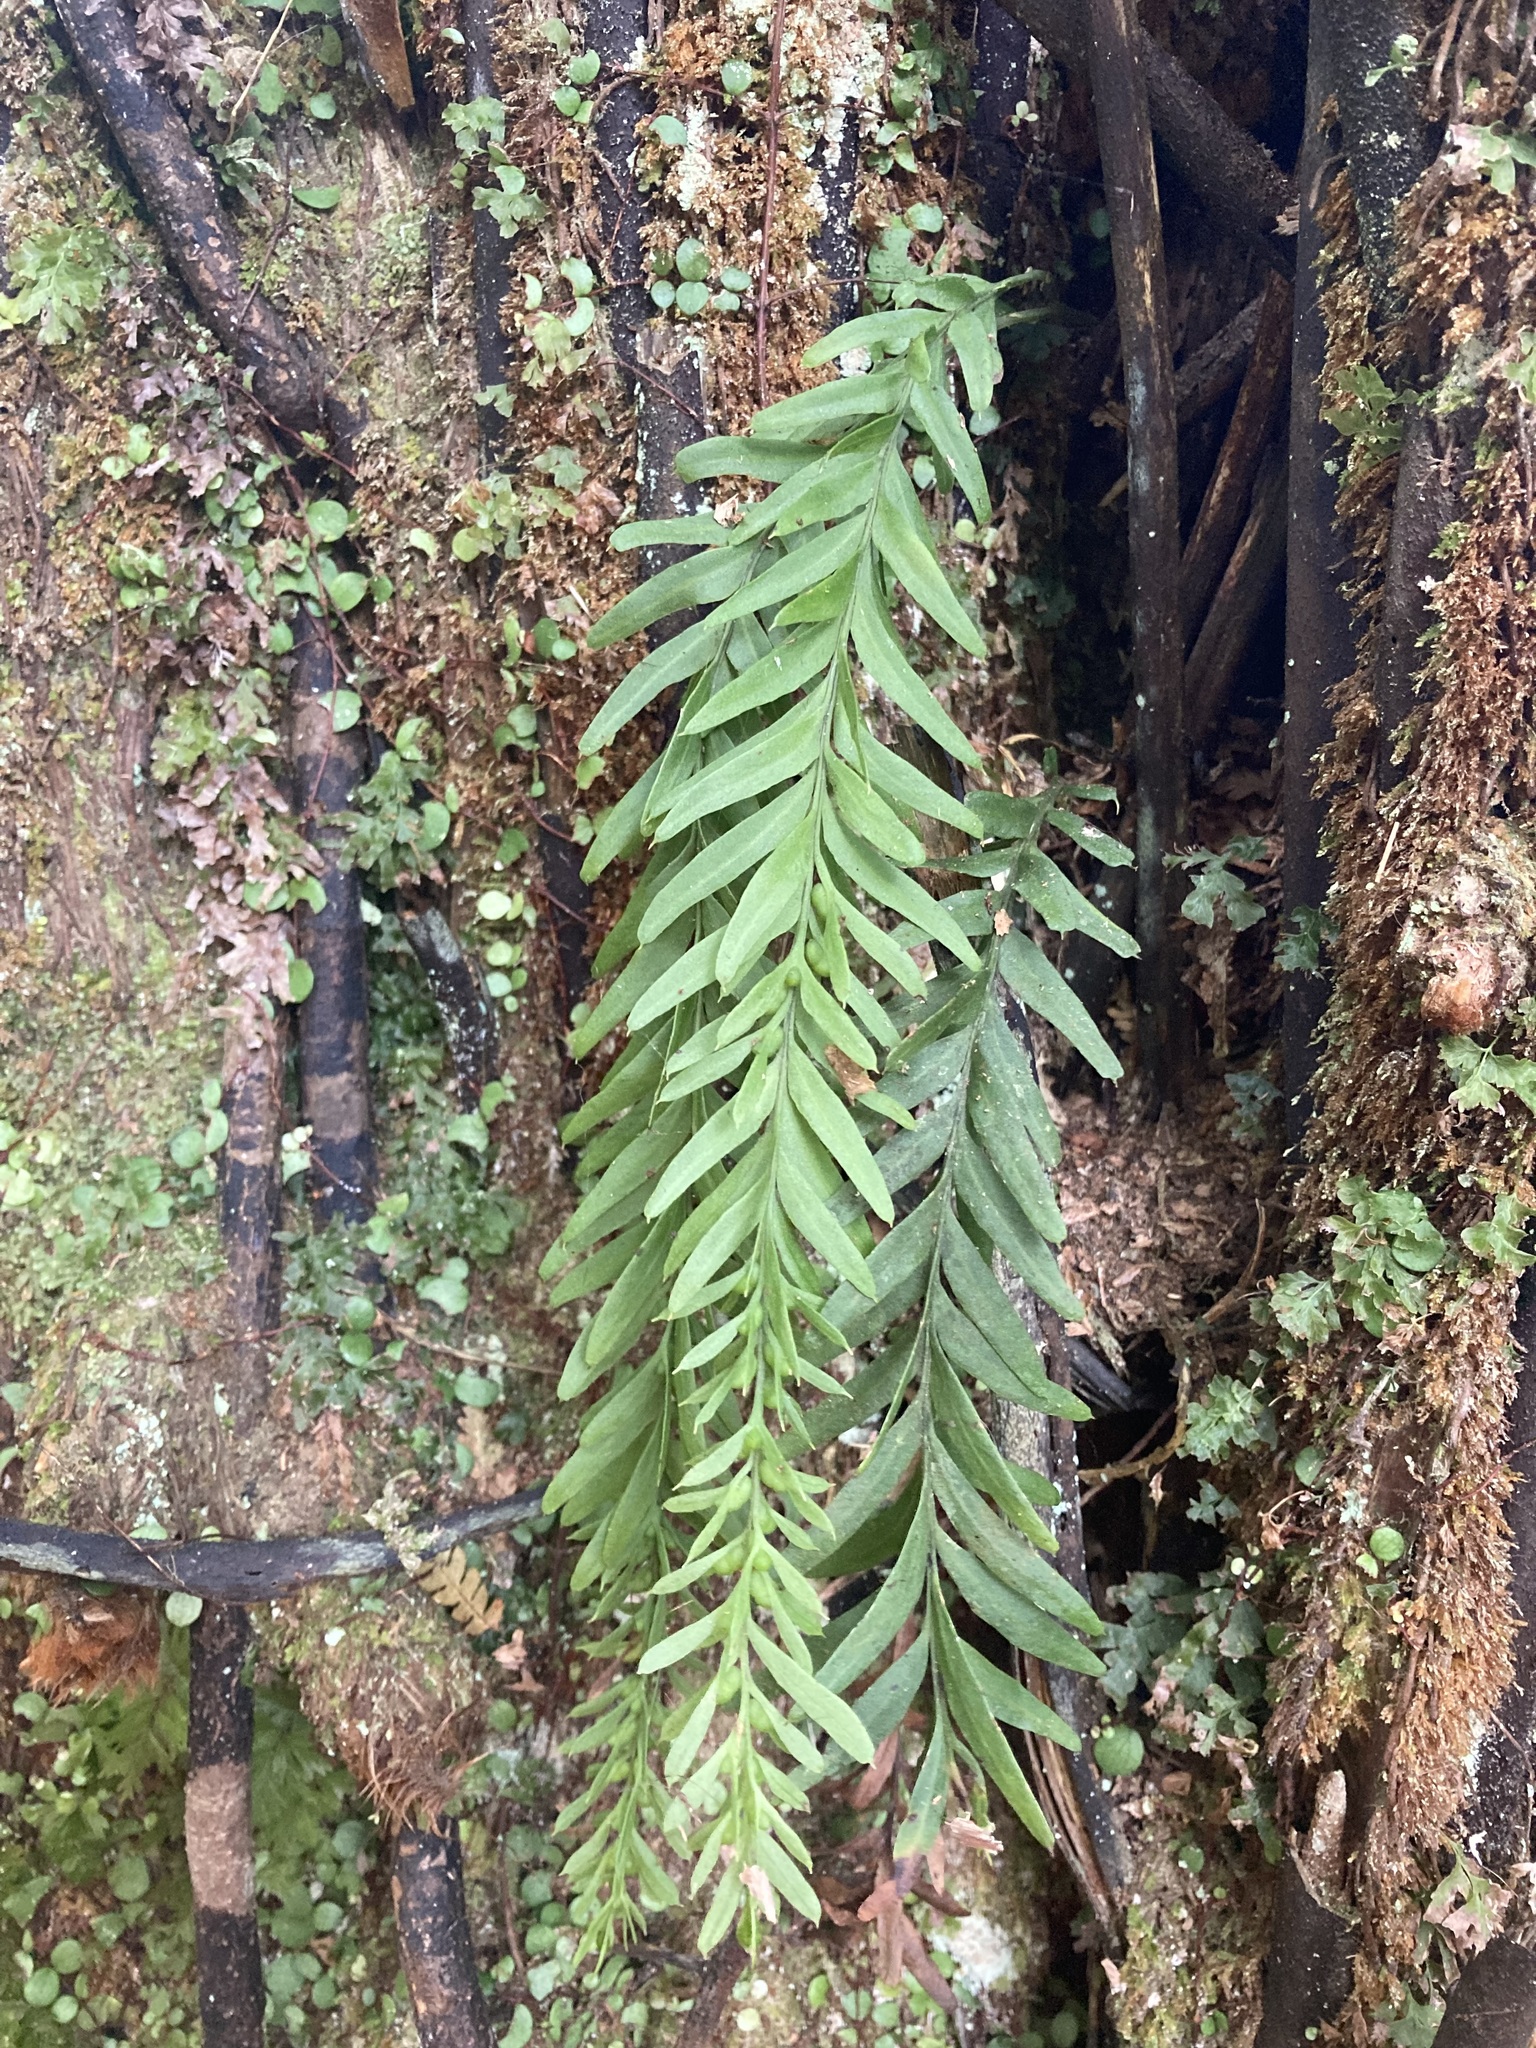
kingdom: Plantae
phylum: Tracheophyta
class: Polypodiopsida
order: Psilotales
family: Psilotaceae
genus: Tmesipteris
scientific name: Tmesipteris elongata
